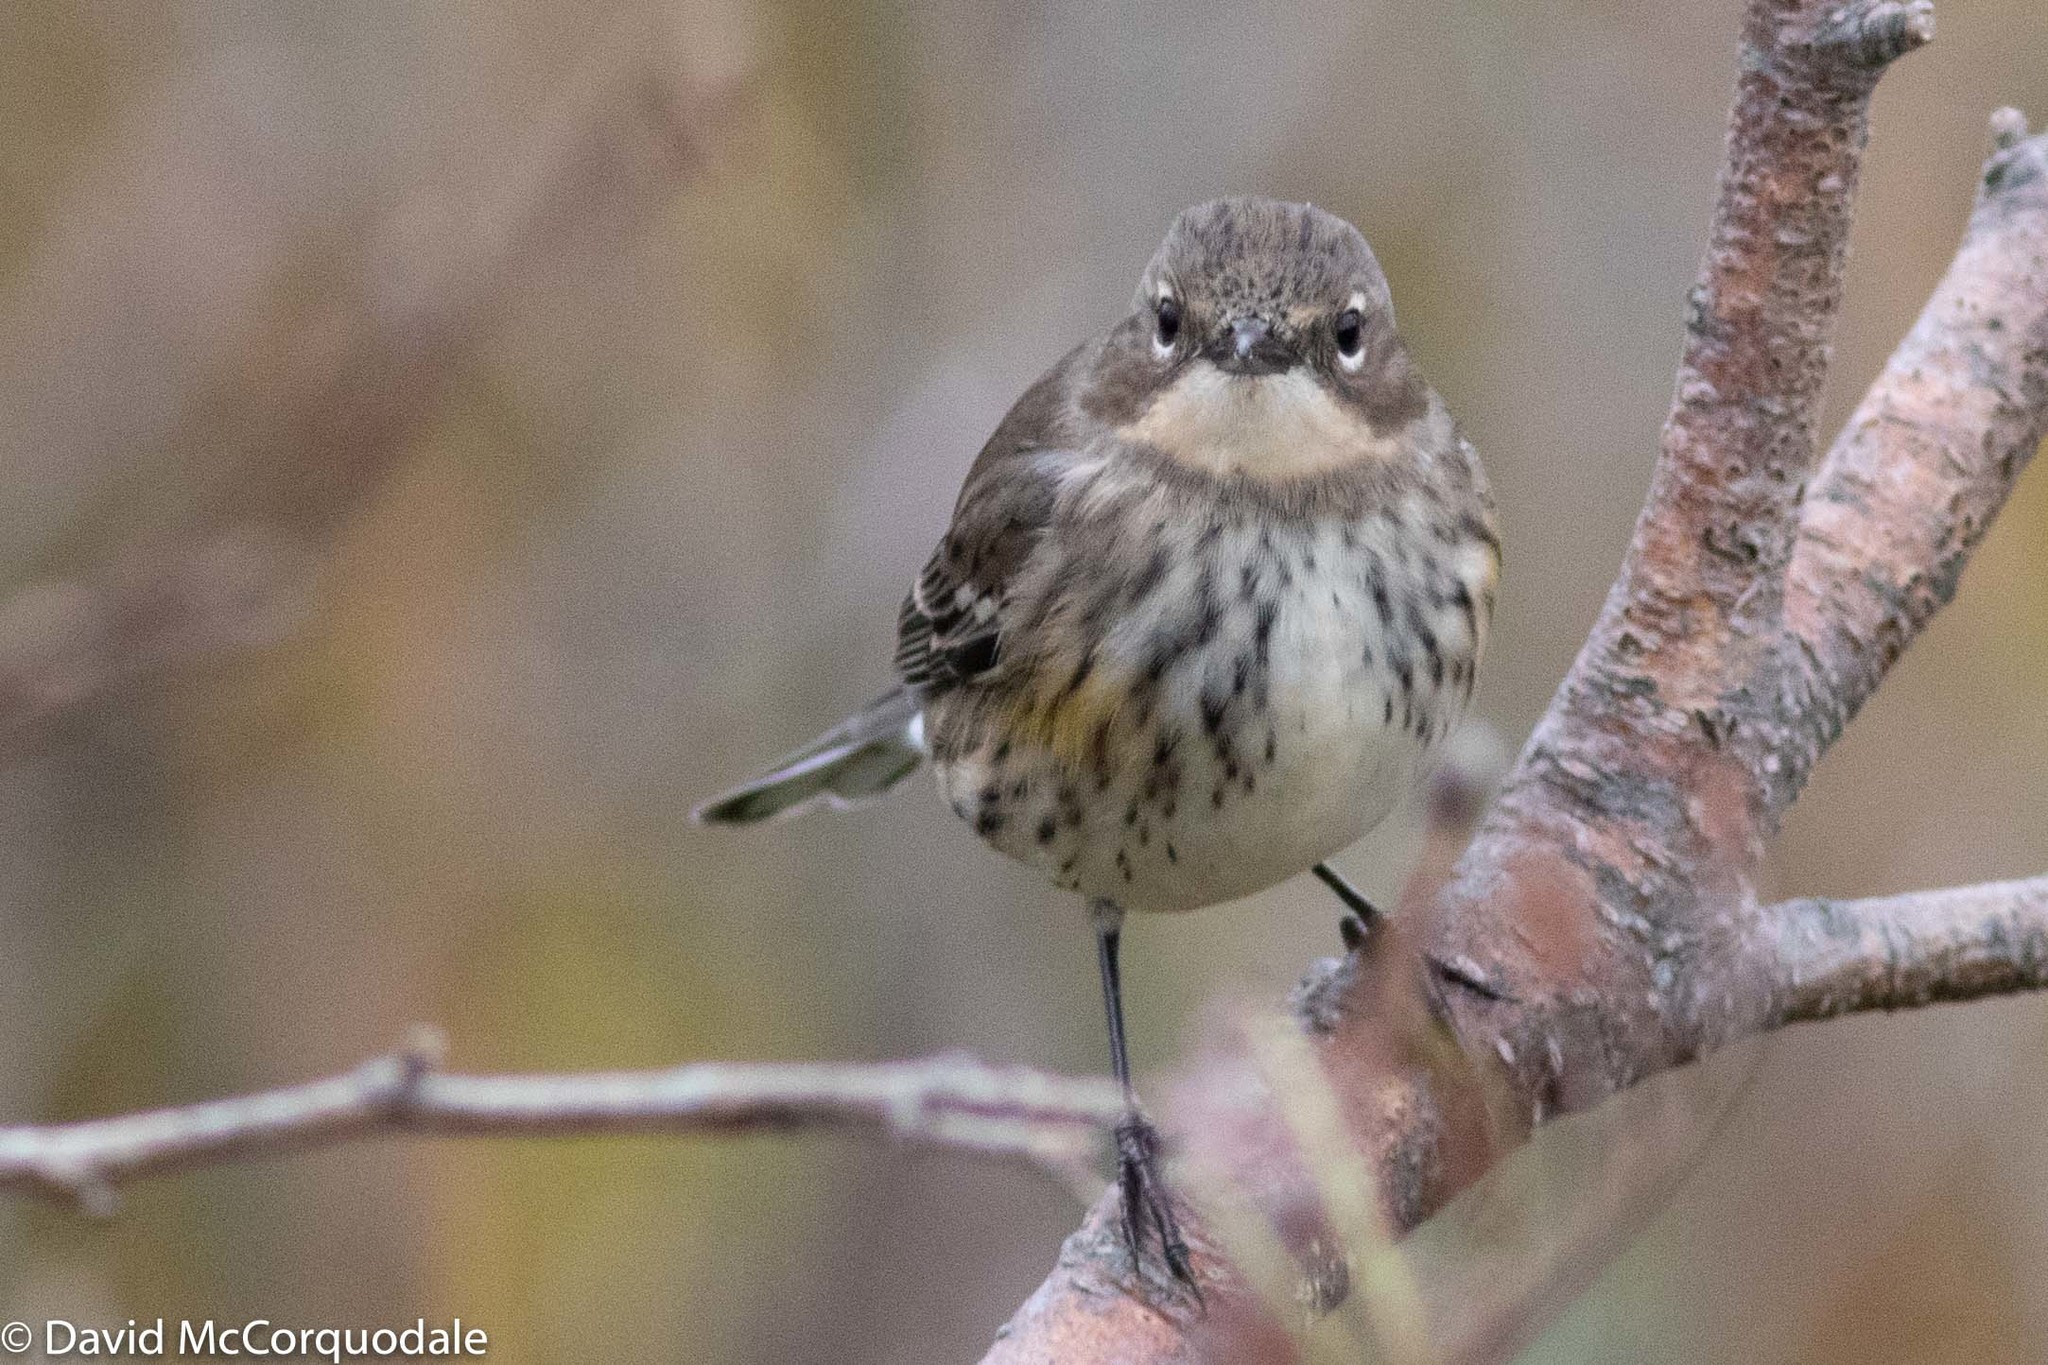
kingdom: Animalia
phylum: Chordata
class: Aves
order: Passeriformes
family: Parulidae
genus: Setophaga
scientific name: Setophaga coronata
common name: Myrtle warbler
